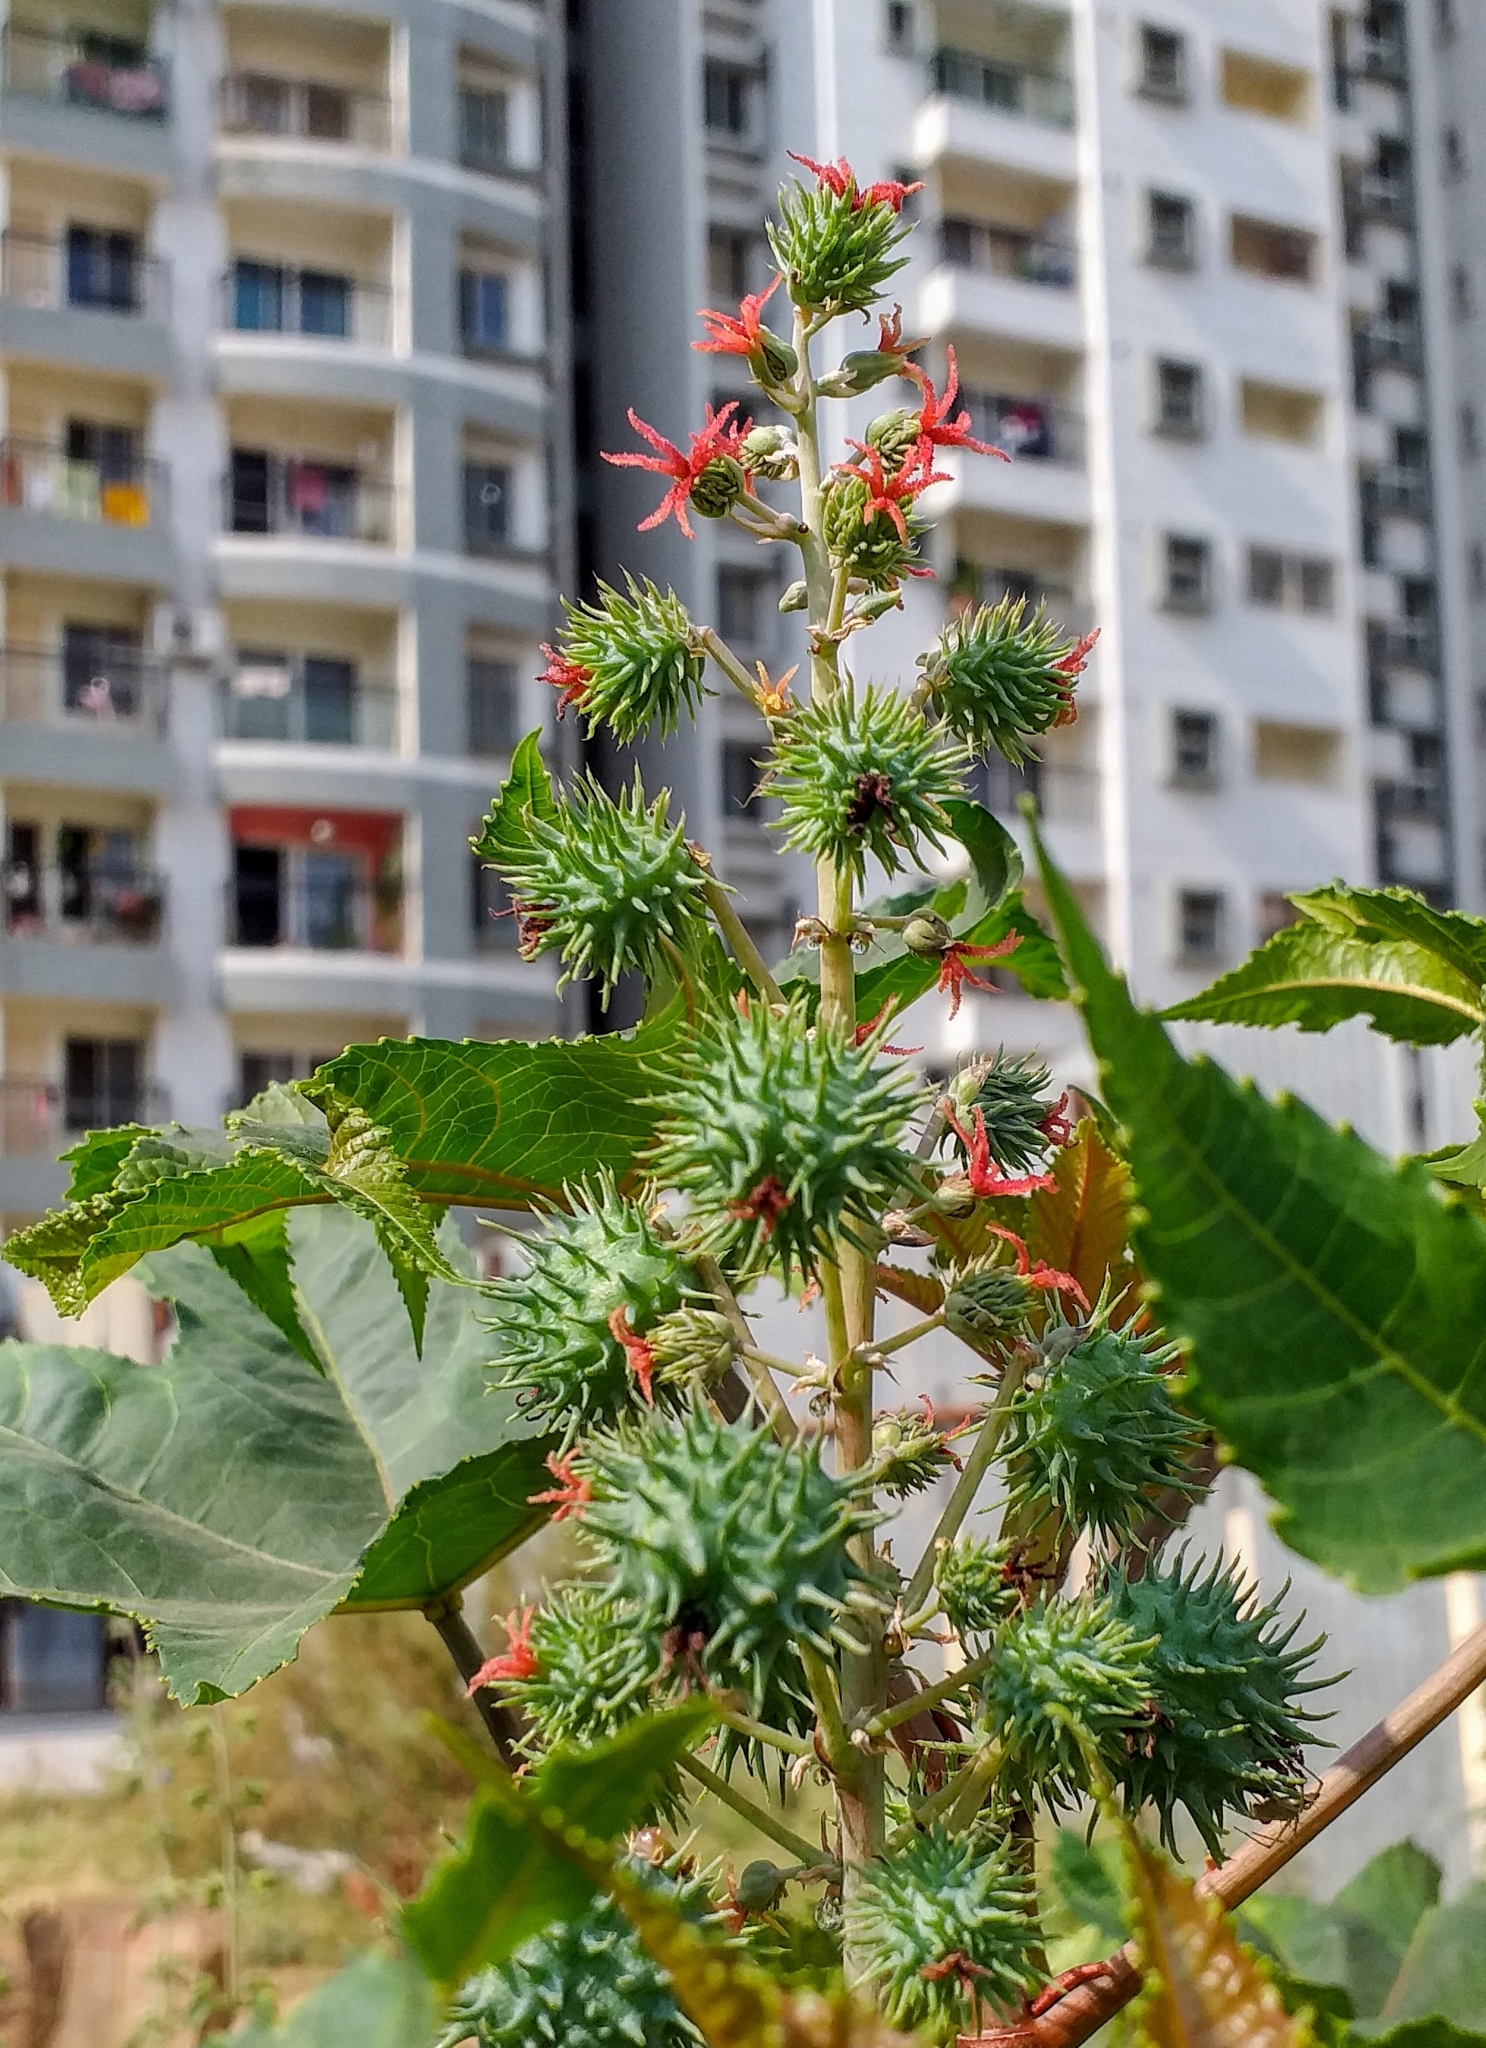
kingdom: Plantae
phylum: Tracheophyta
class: Magnoliopsida
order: Malpighiales
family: Euphorbiaceae
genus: Ricinus
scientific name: Ricinus communis
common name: Castor-oil-plant
